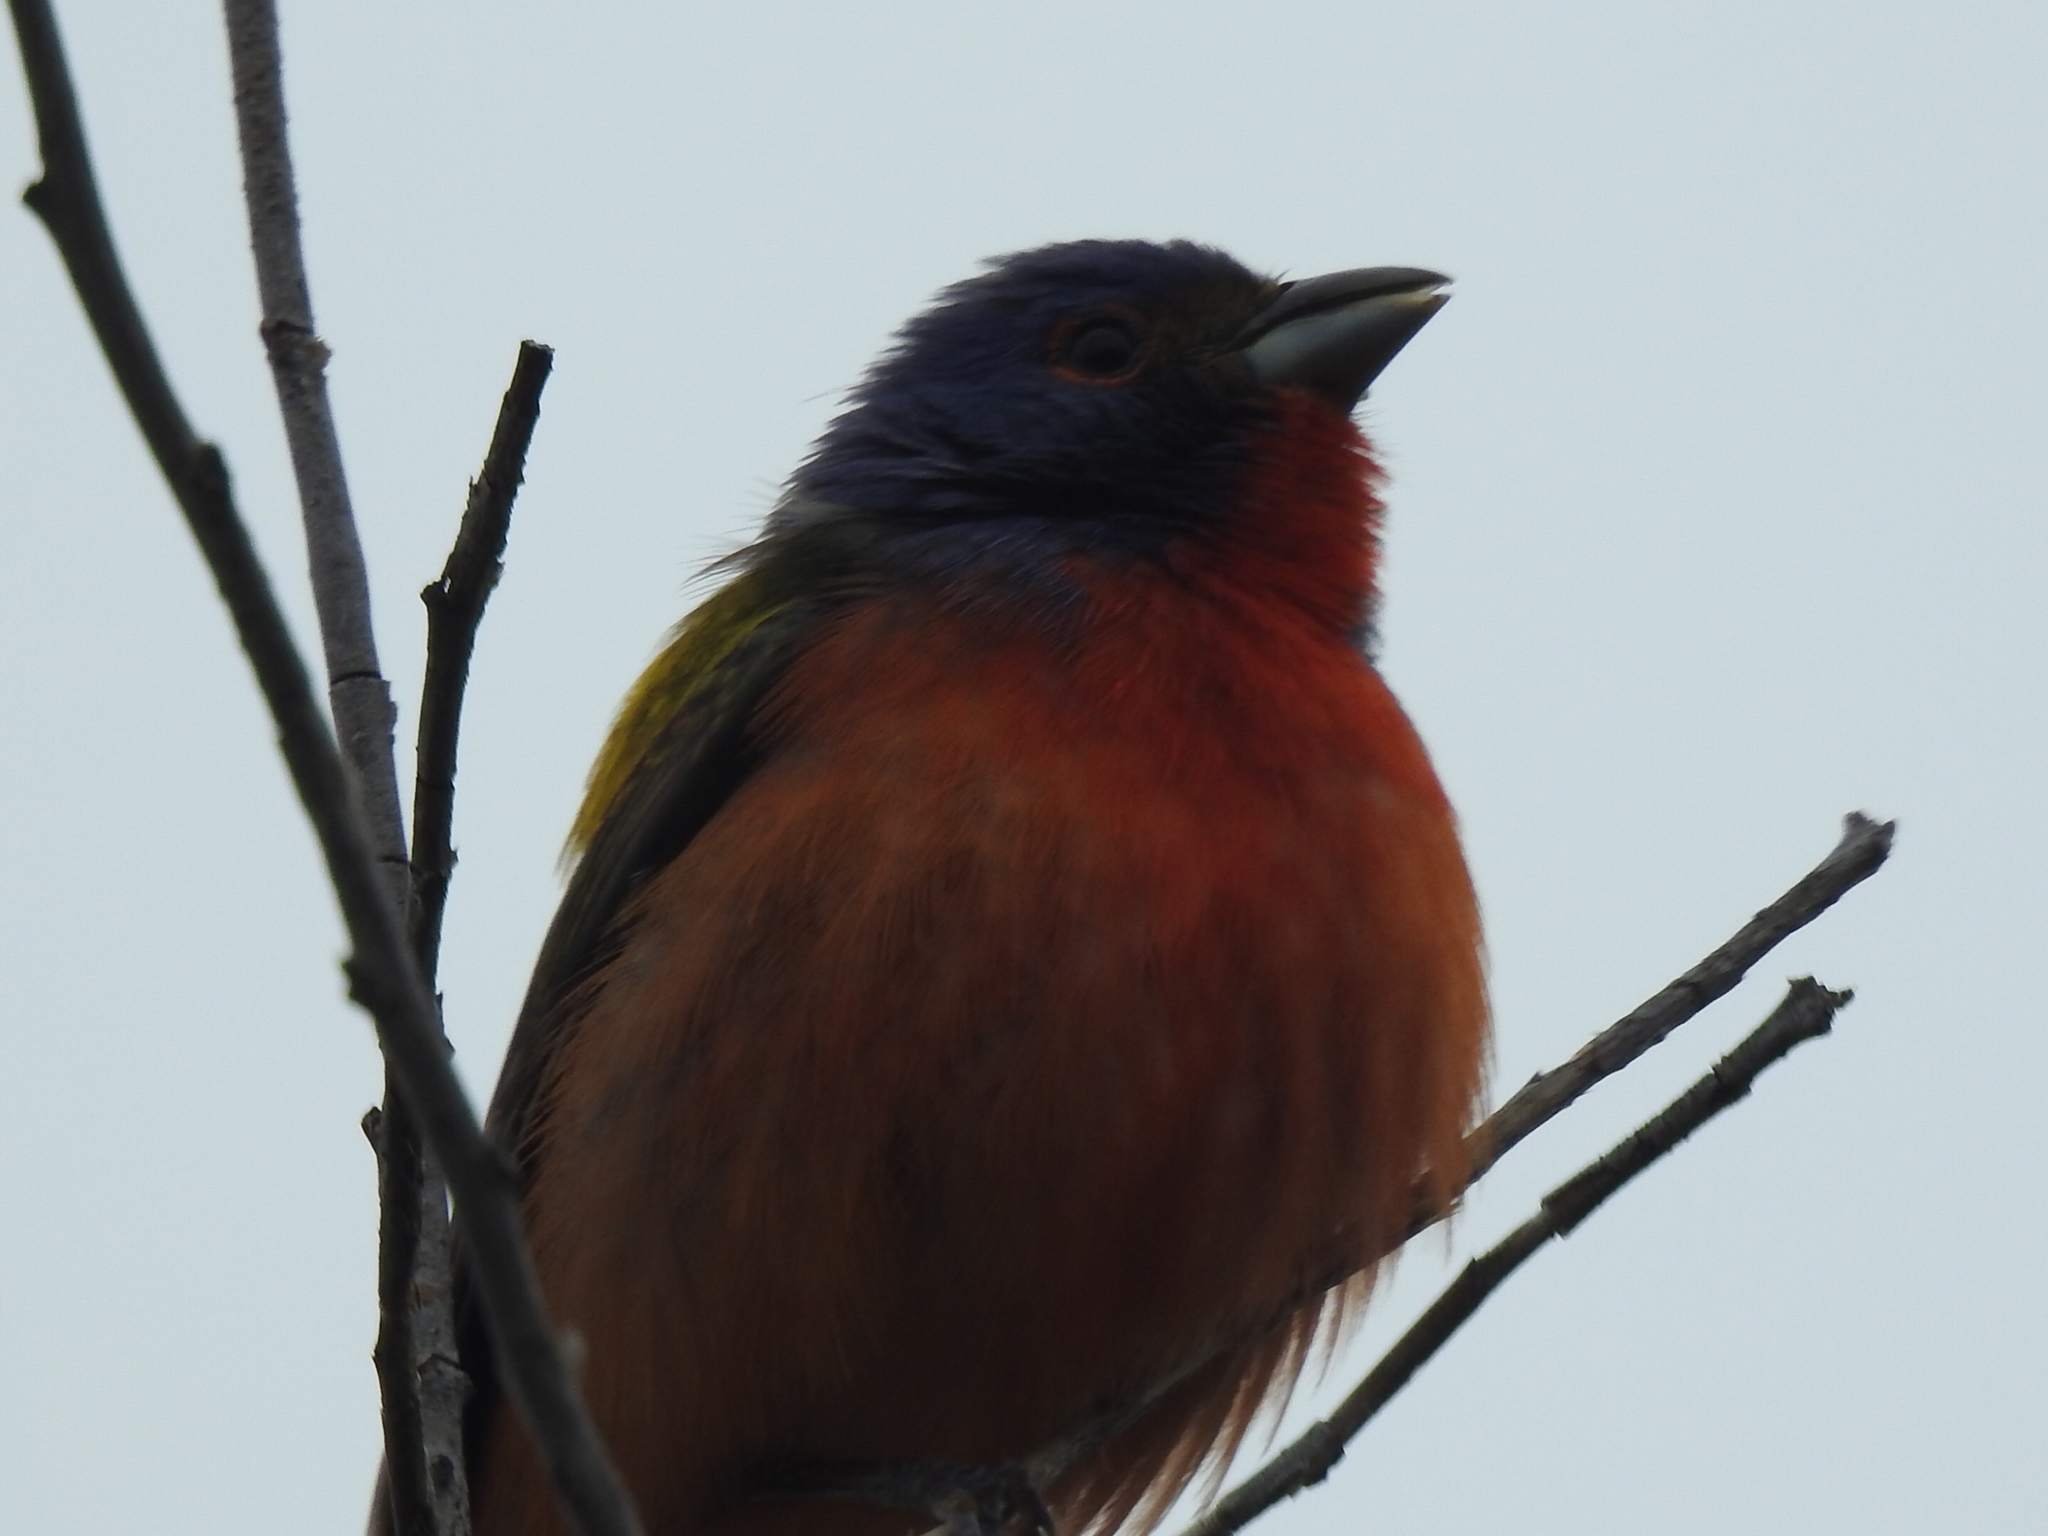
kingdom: Animalia
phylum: Chordata
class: Aves
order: Passeriformes
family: Cardinalidae
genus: Passerina
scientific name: Passerina ciris
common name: Painted bunting
